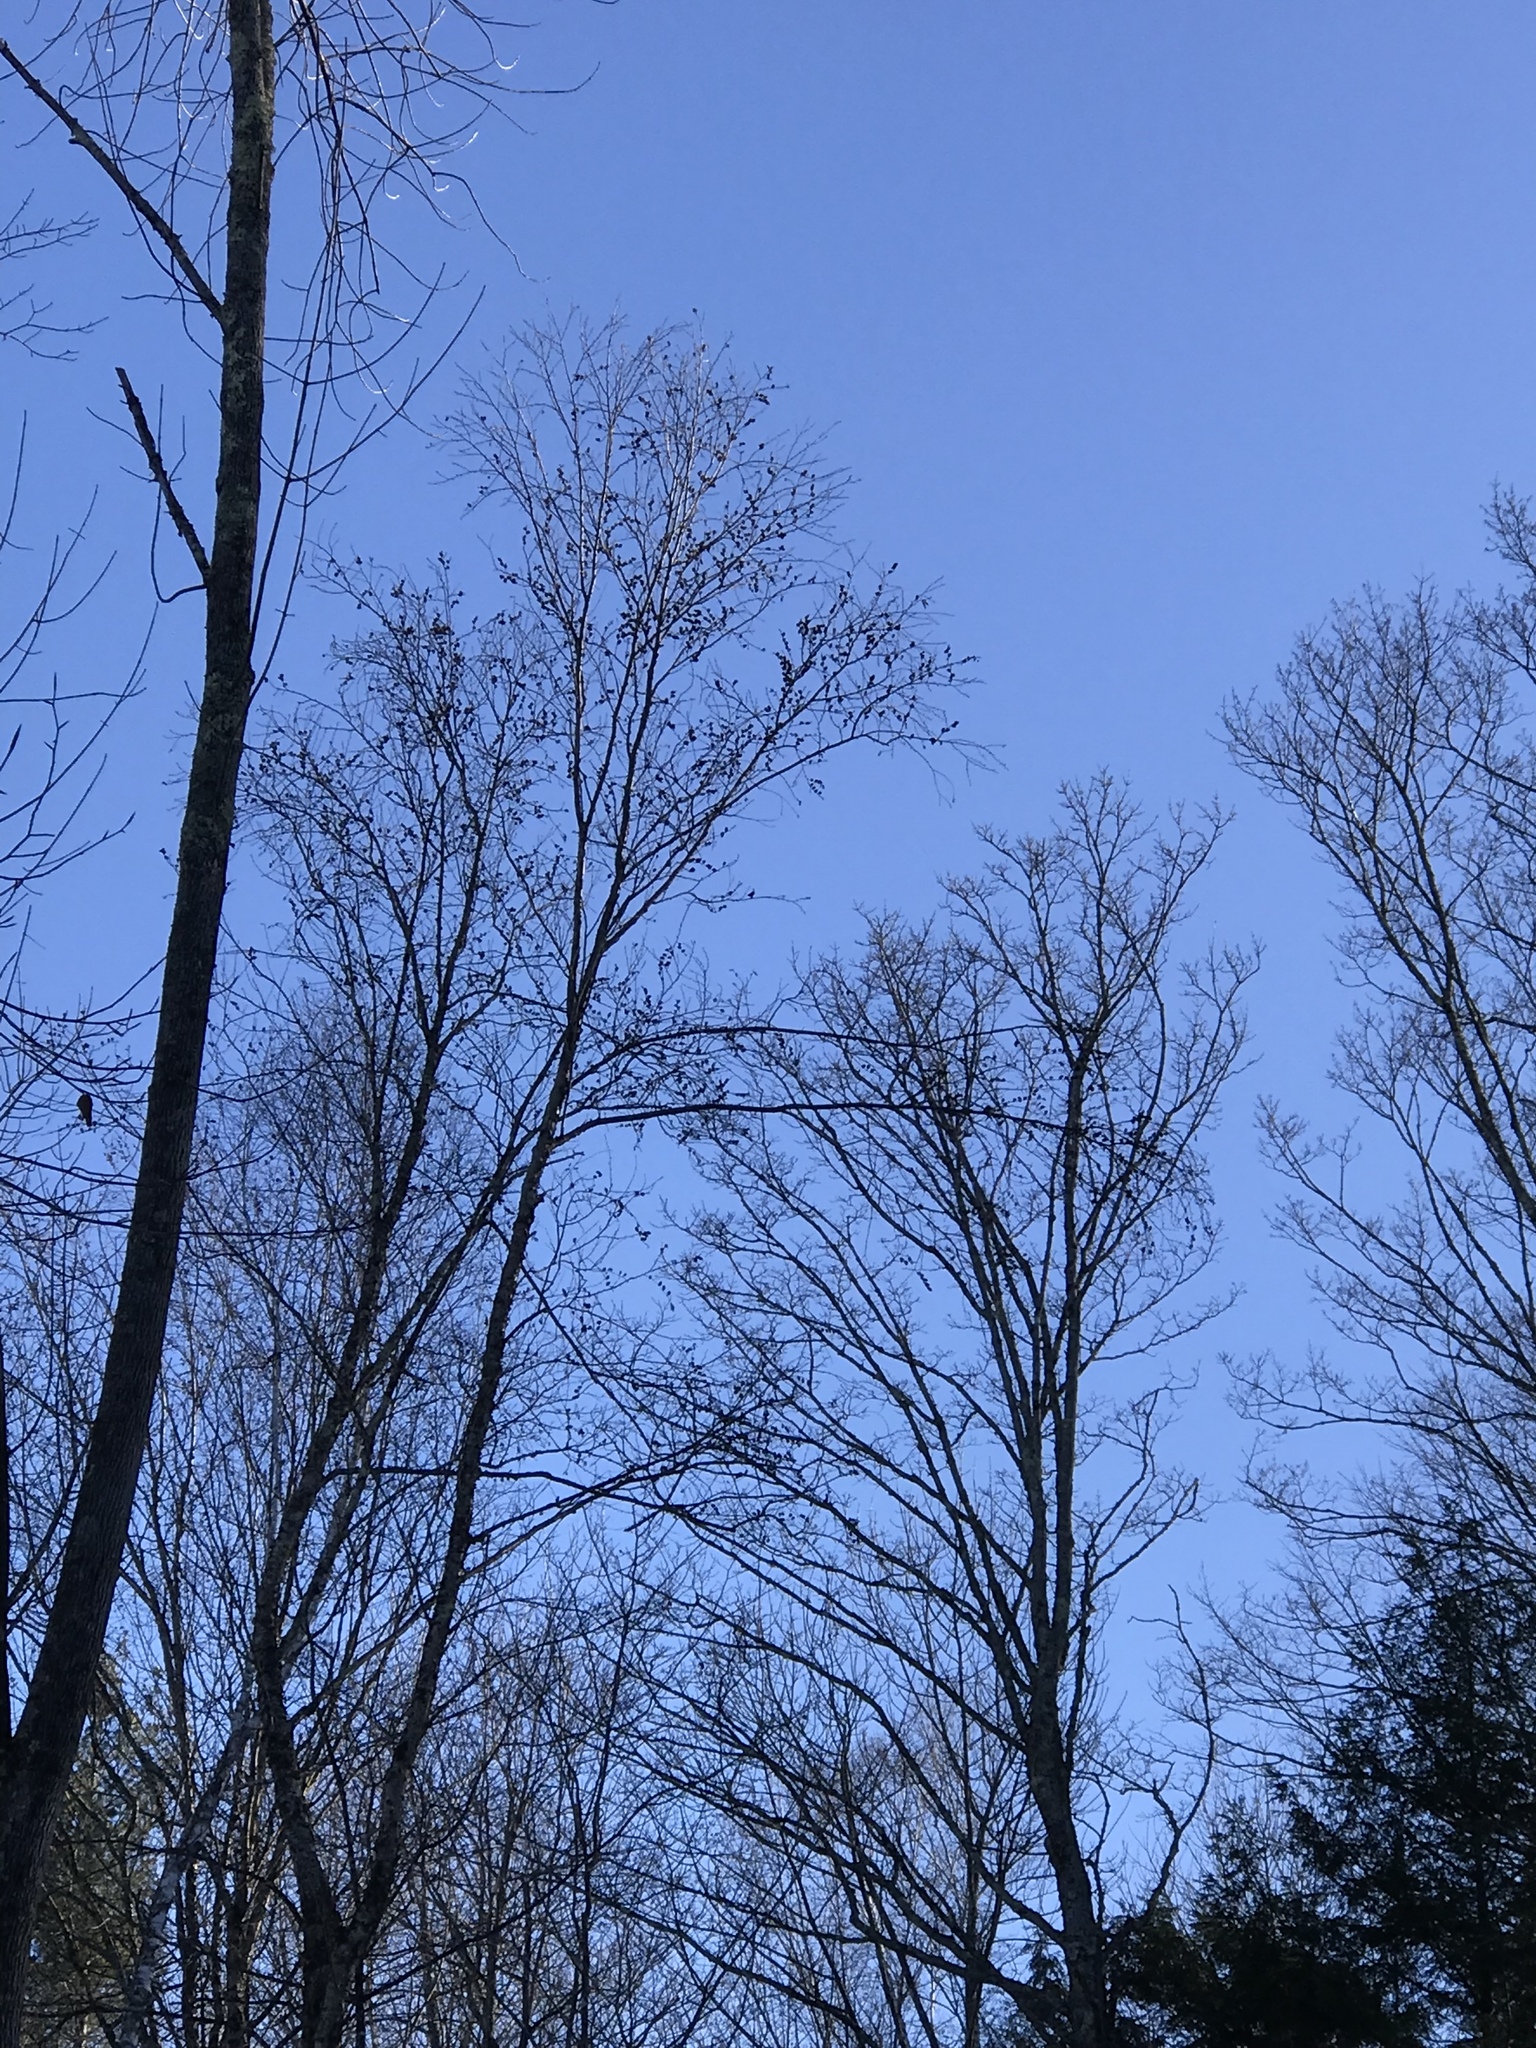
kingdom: Plantae
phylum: Tracheophyta
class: Magnoliopsida
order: Fagales
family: Betulaceae
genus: Betula
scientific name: Betula alleghaniensis
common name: Yellow birch
